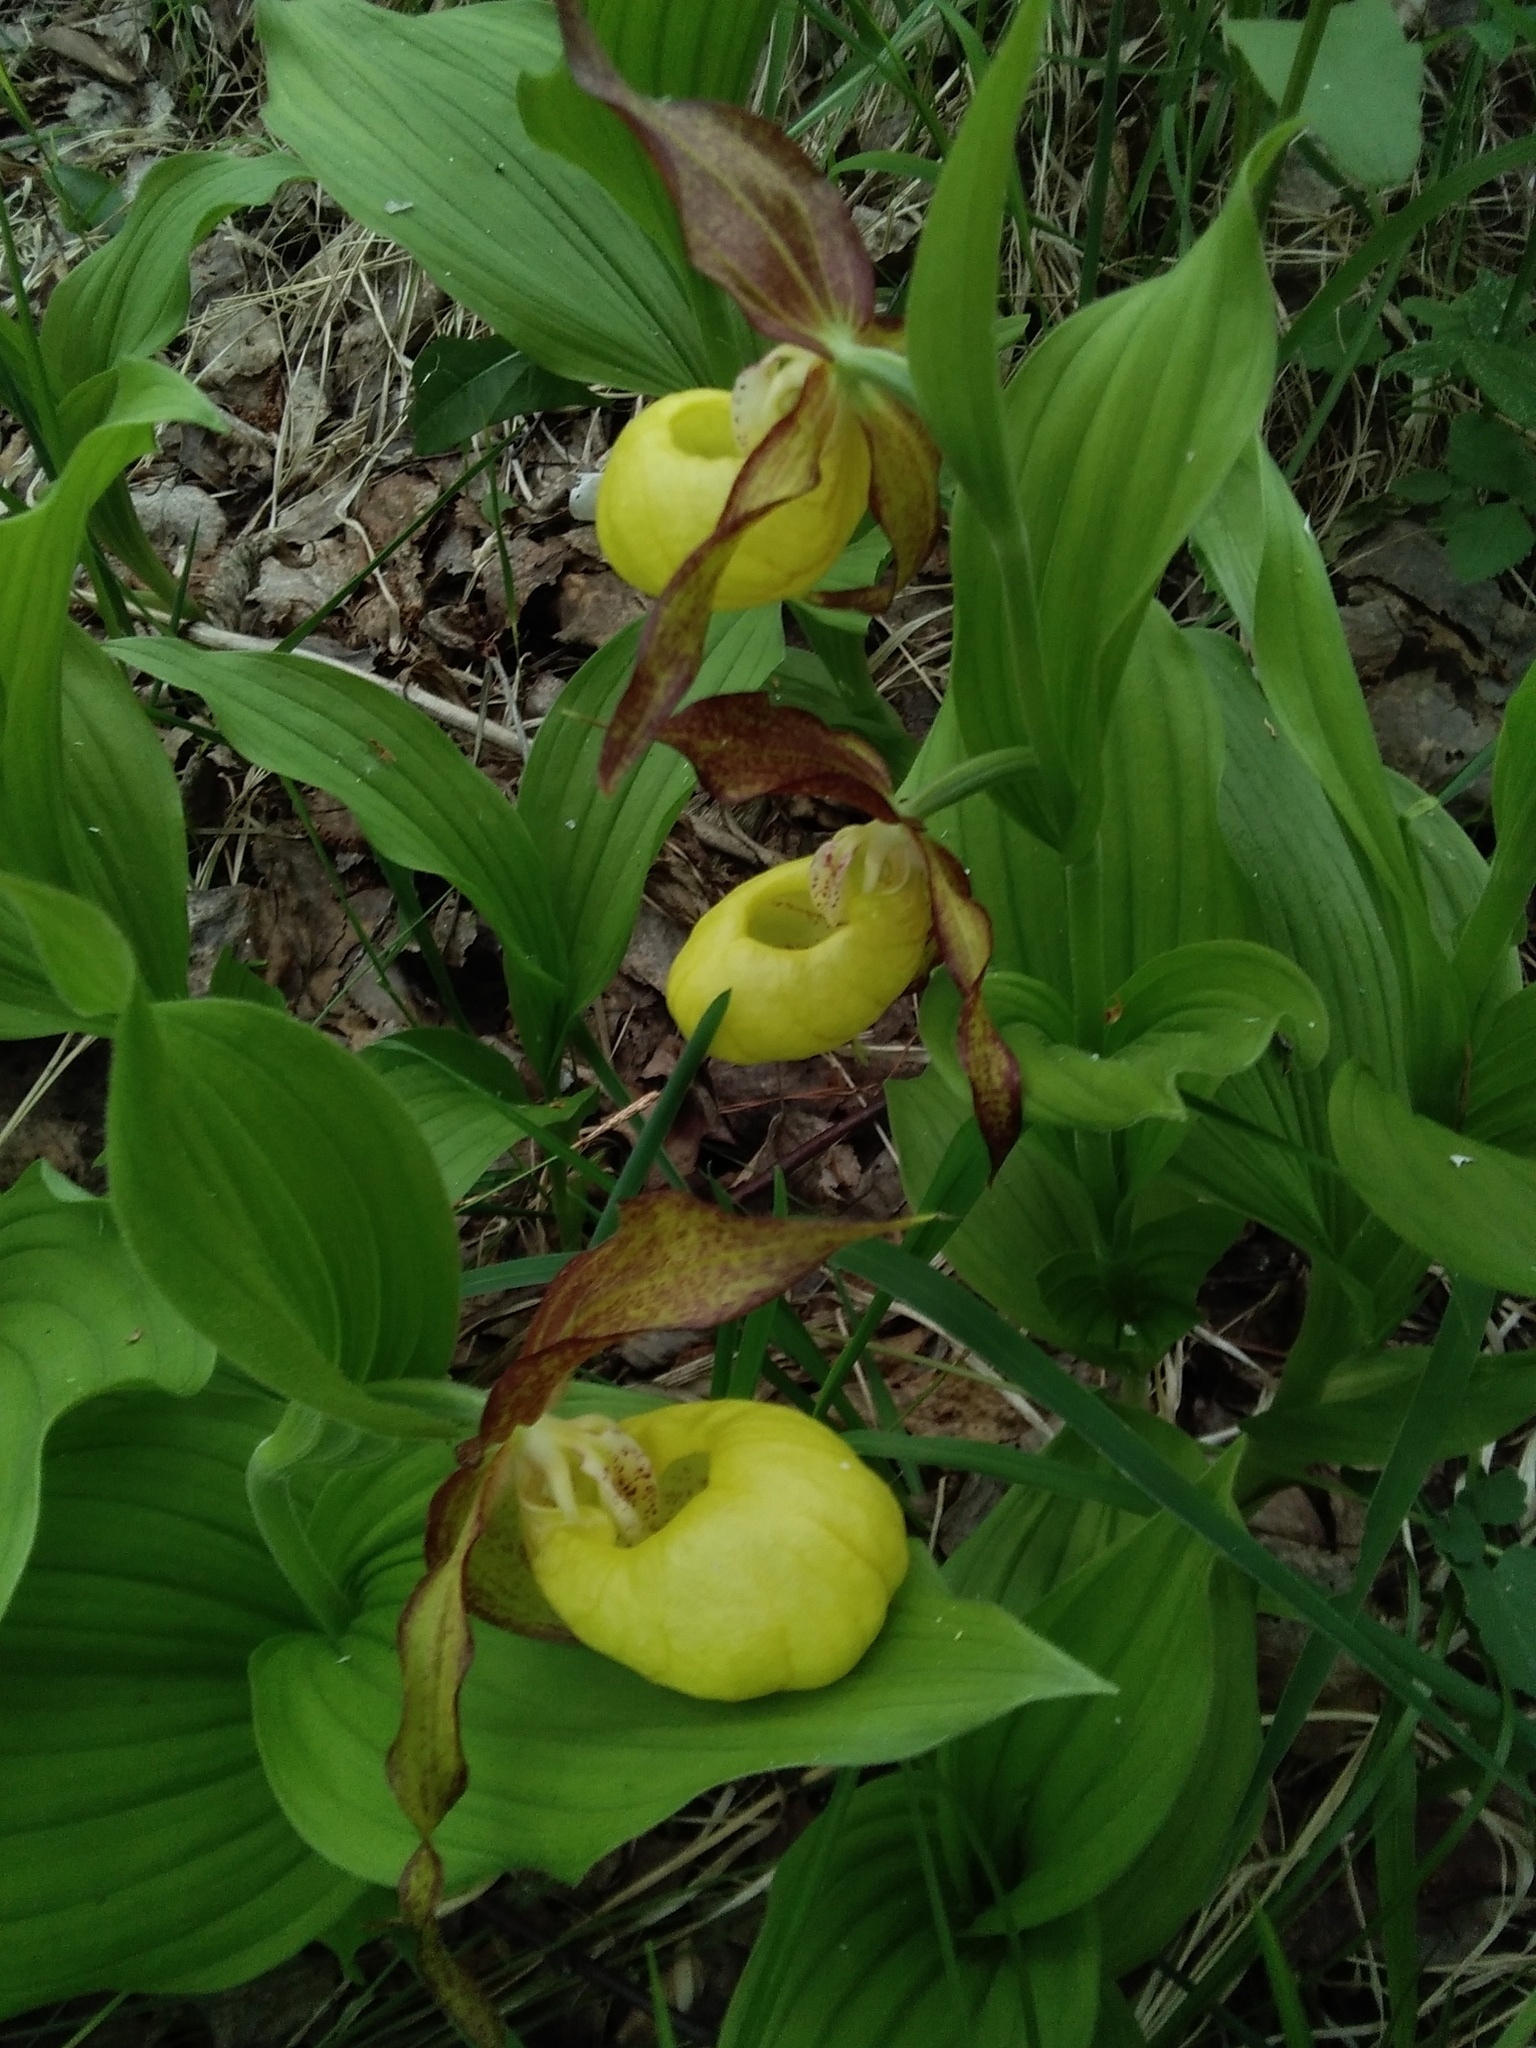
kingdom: Plantae
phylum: Tracheophyta
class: Liliopsida
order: Asparagales
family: Orchidaceae
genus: Cypripedium
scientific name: Cypripedium calceolus
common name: Lady's-slipper
